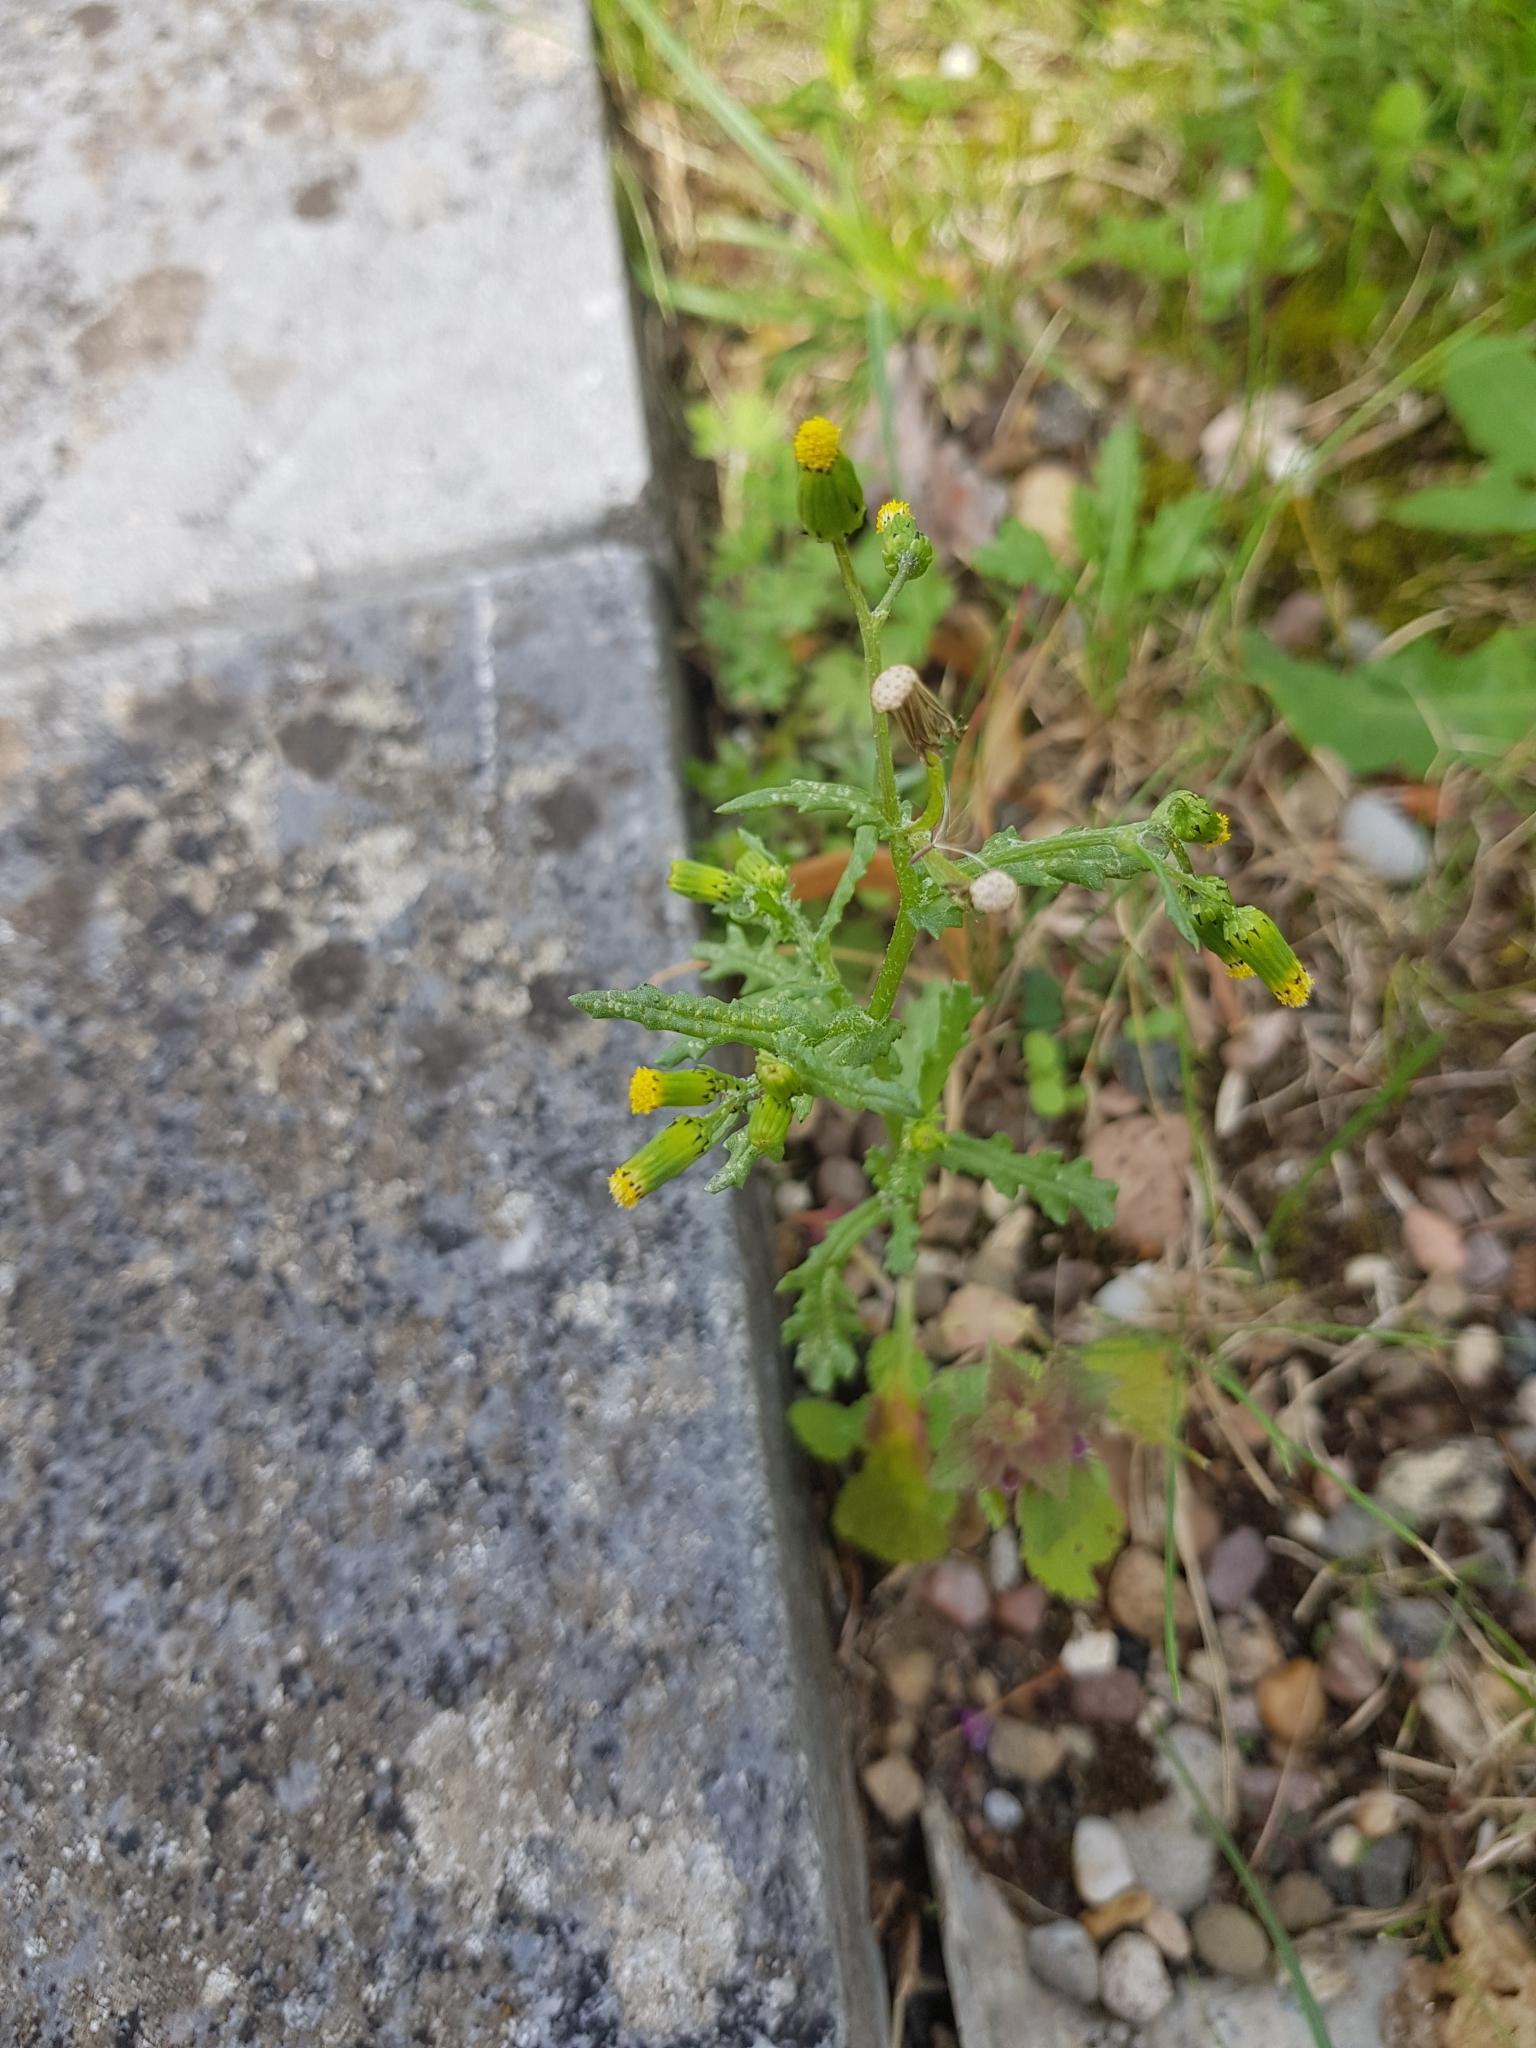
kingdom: Plantae
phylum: Tracheophyta
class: Magnoliopsida
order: Asterales
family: Asteraceae
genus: Senecio
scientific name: Senecio vulgaris
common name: Old-man-in-the-spring
